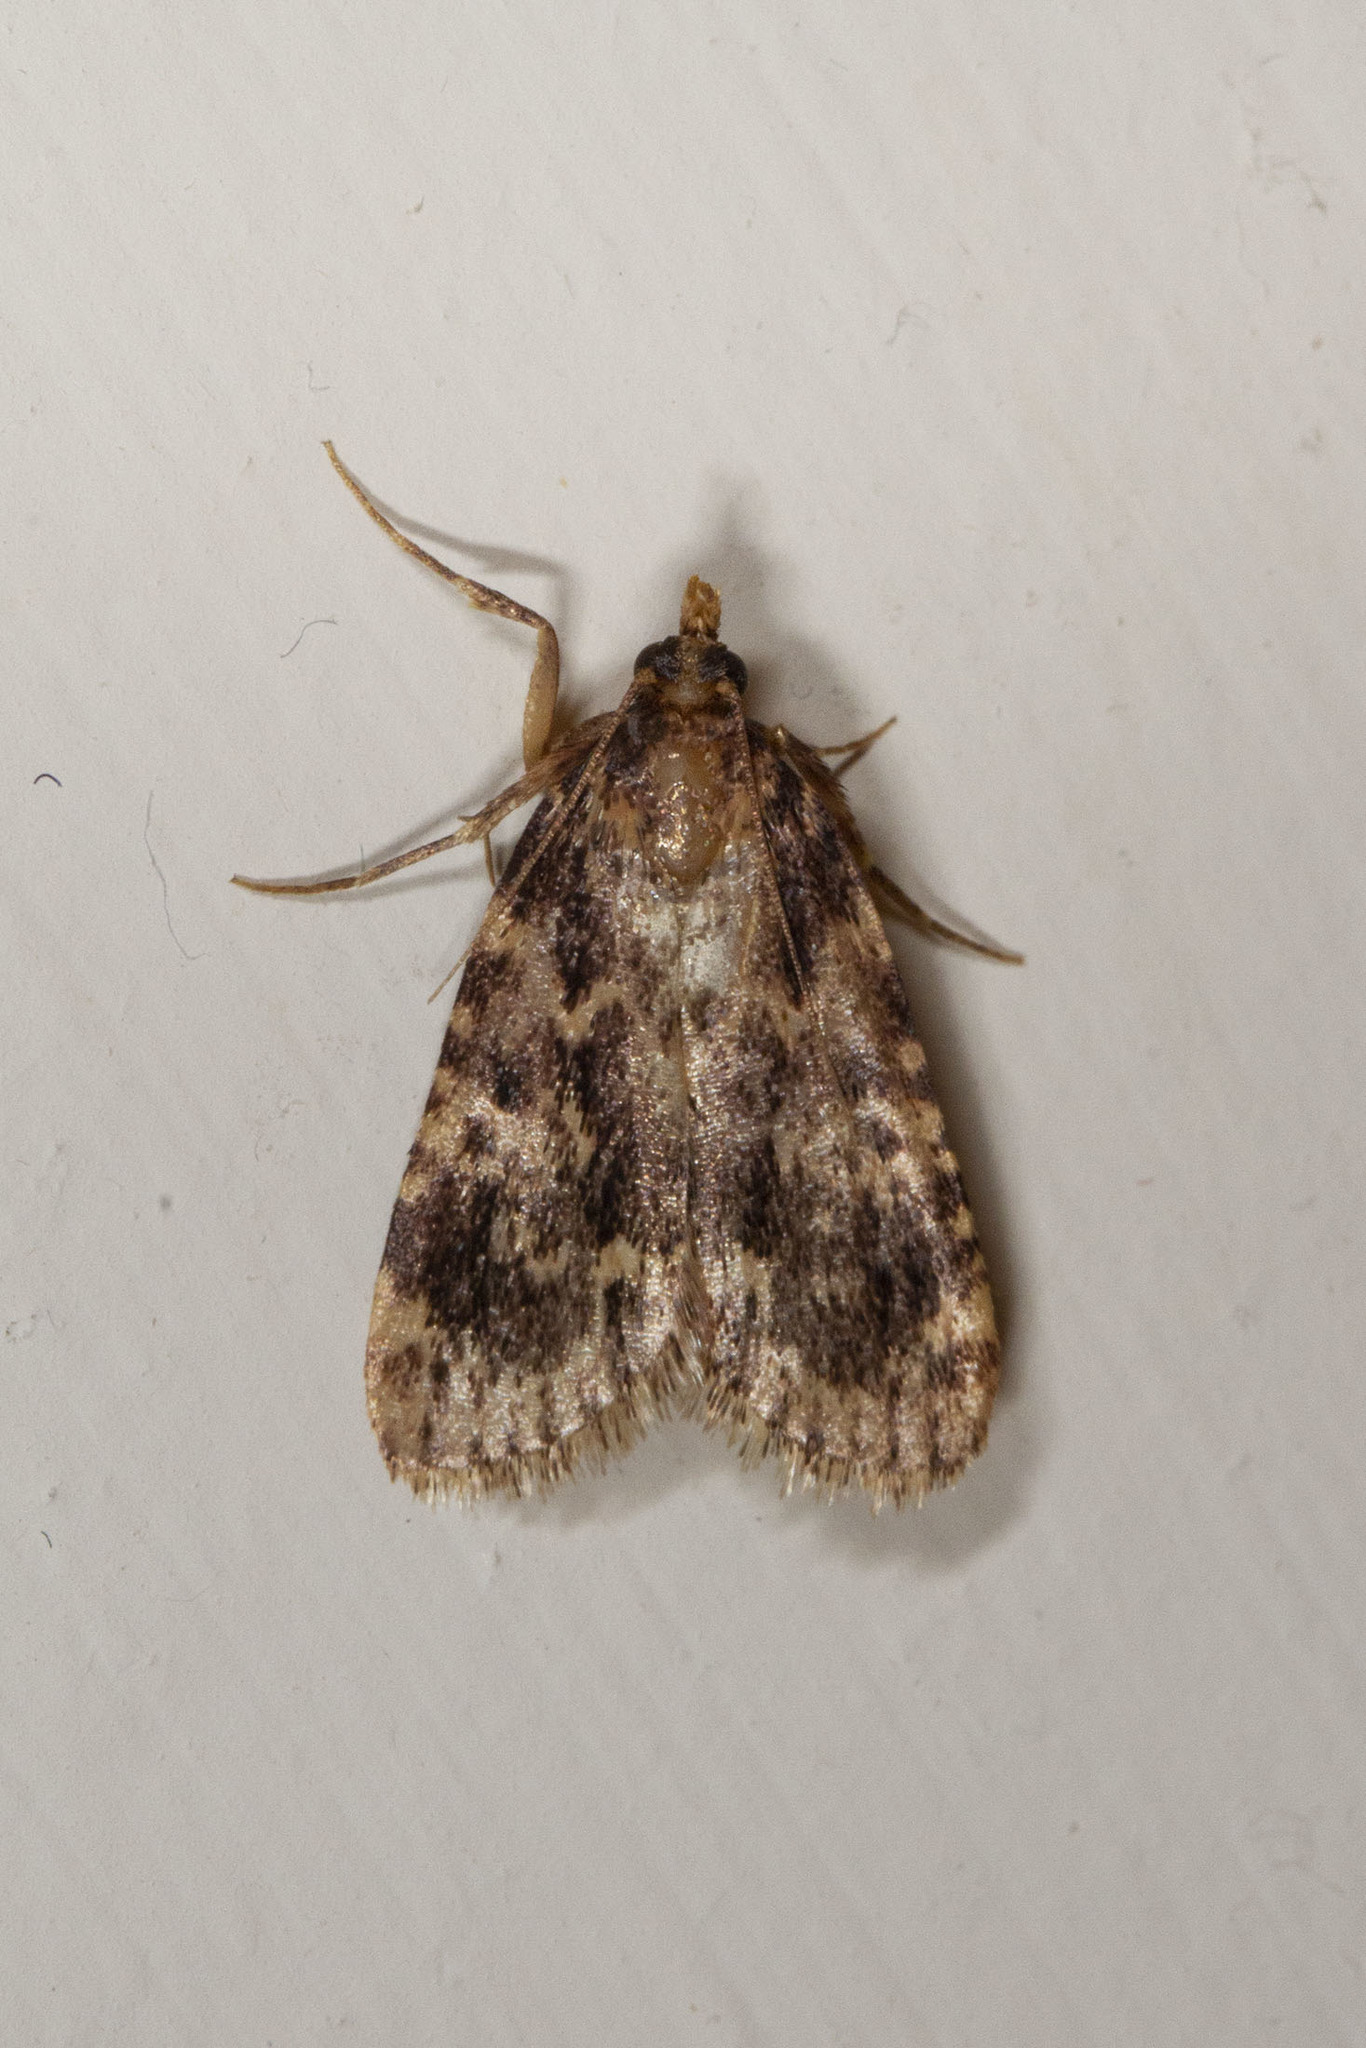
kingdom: Animalia
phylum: Arthropoda
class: Insecta
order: Lepidoptera
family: Pyralidae
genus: Aglossa
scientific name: Aglossa caprealis
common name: Small tabby
